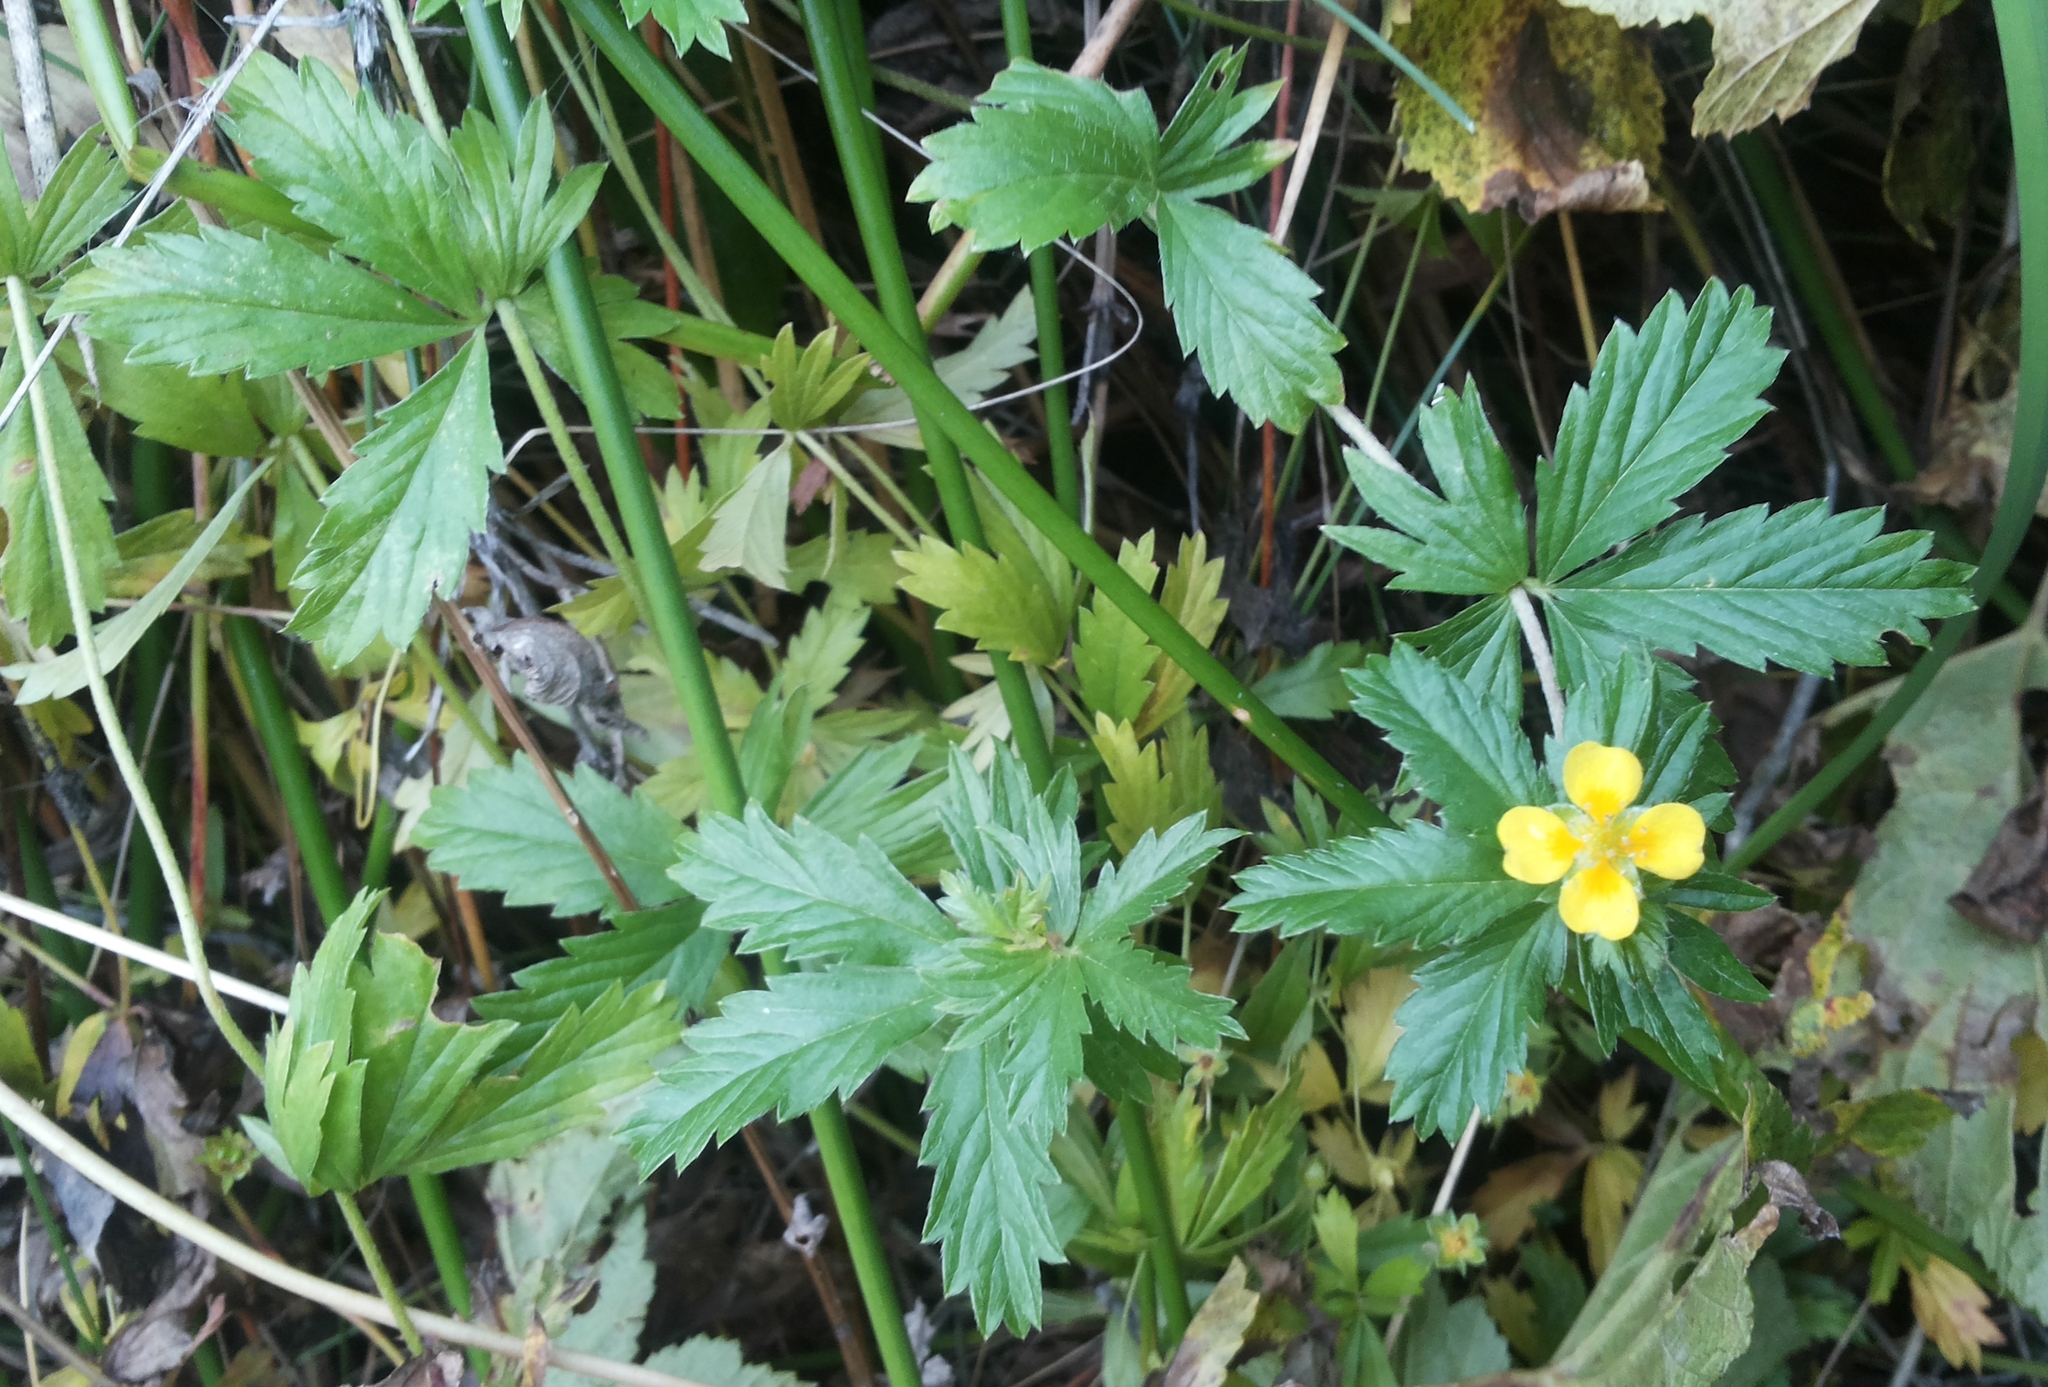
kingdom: Plantae
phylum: Tracheophyta
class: Magnoliopsida
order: Rosales
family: Rosaceae
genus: Potentilla
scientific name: Potentilla erecta
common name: Tormentil
